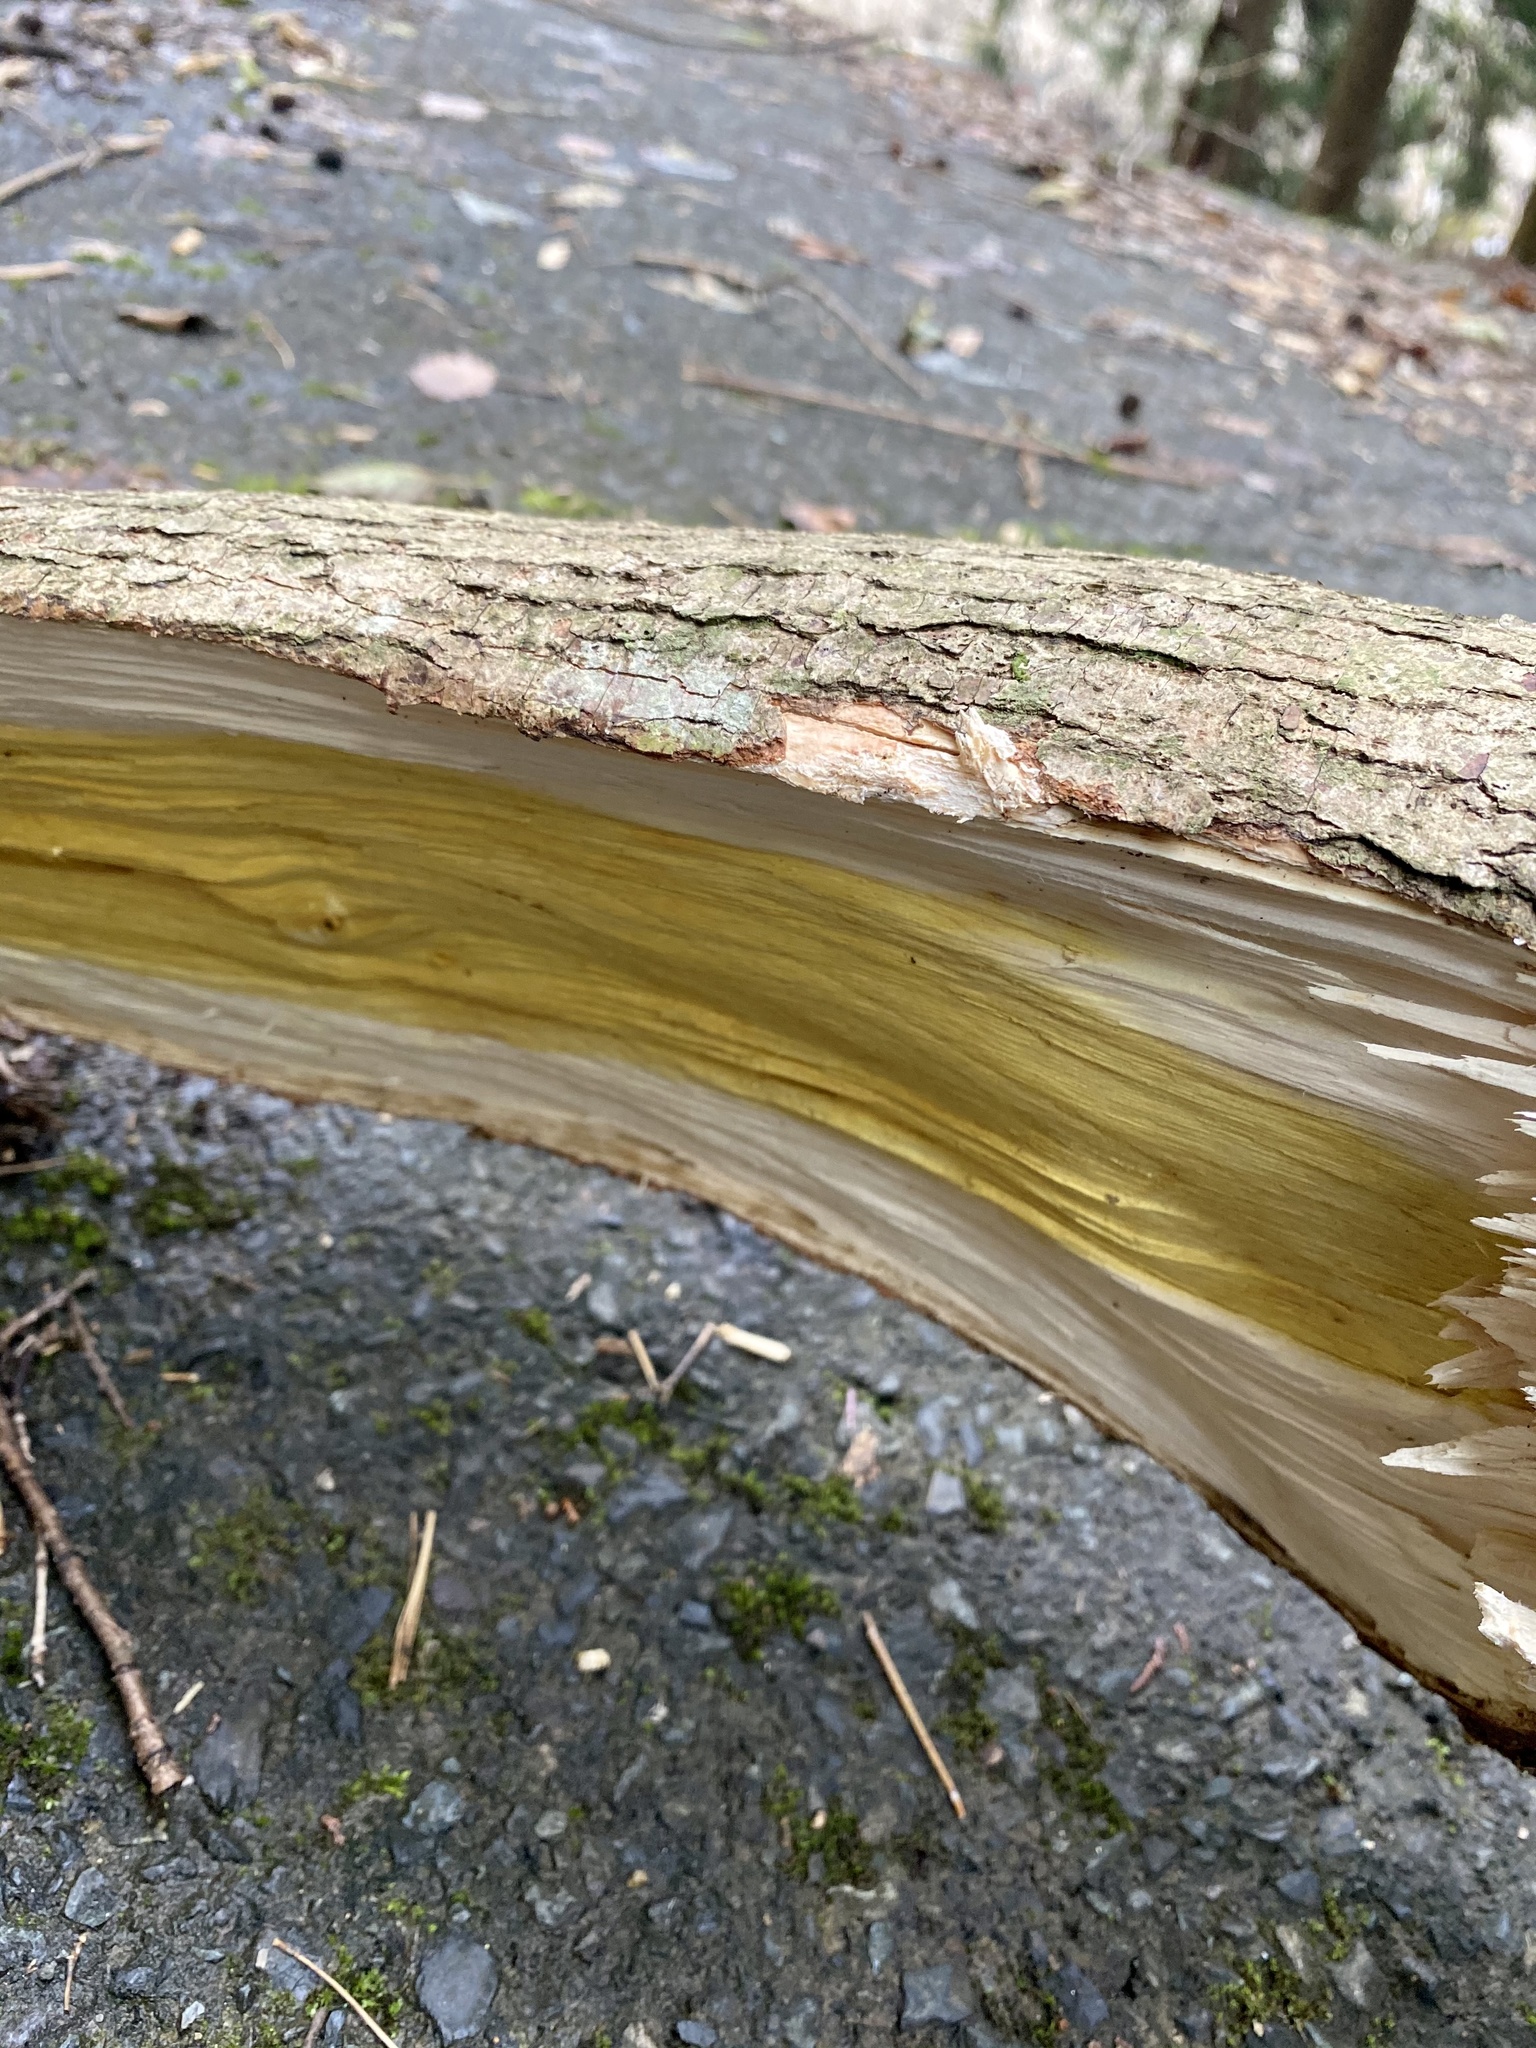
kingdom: Plantae
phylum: Tracheophyta
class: Magnoliopsida
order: Sapindales
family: Anacardiaceae
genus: Toxicodendron
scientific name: Toxicodendron succedaneum
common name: Wax tree
